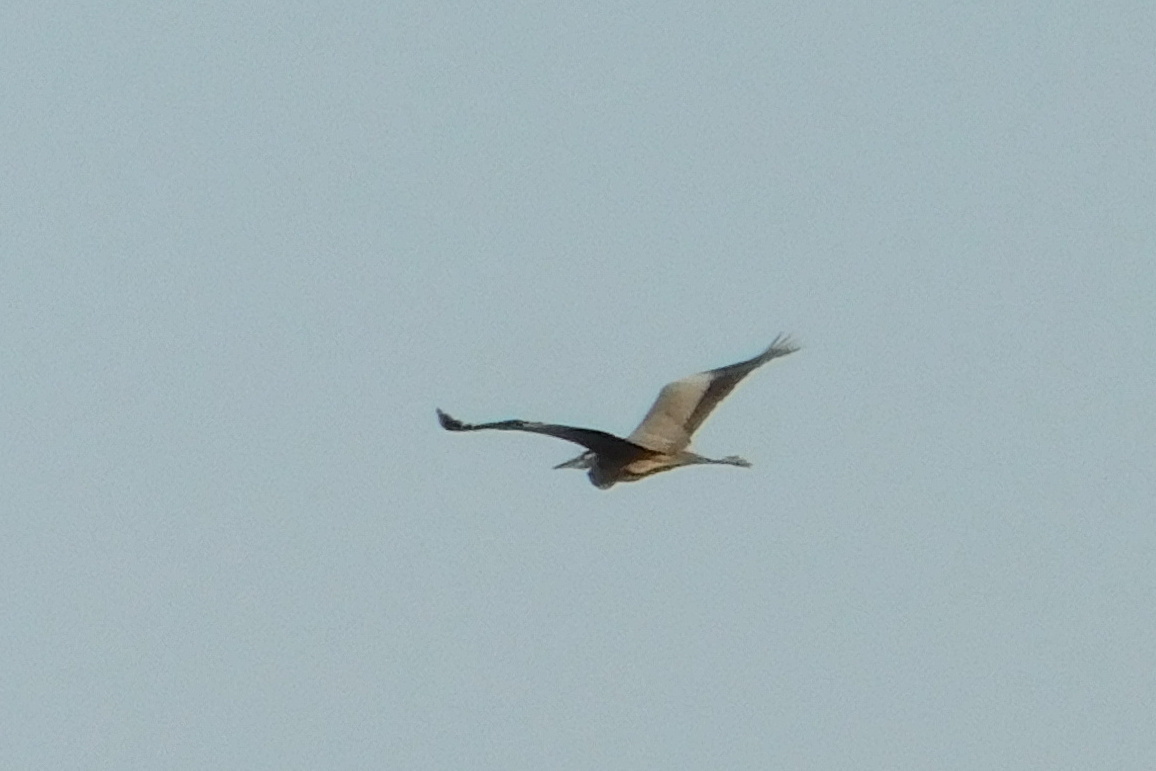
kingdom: Animalia
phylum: Chordata
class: Aves
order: Pelecaniformes
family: Ardeidae
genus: Ardea
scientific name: Ardea cinerea
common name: Grey heron
